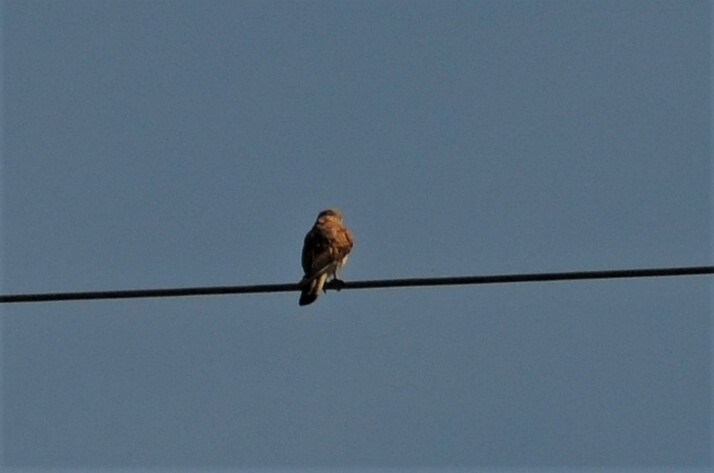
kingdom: Animalia
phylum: Chordata
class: Aves
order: Falconiformes
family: Falconidae
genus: Falco
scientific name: Falco tinnunculus
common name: Common kestrel
